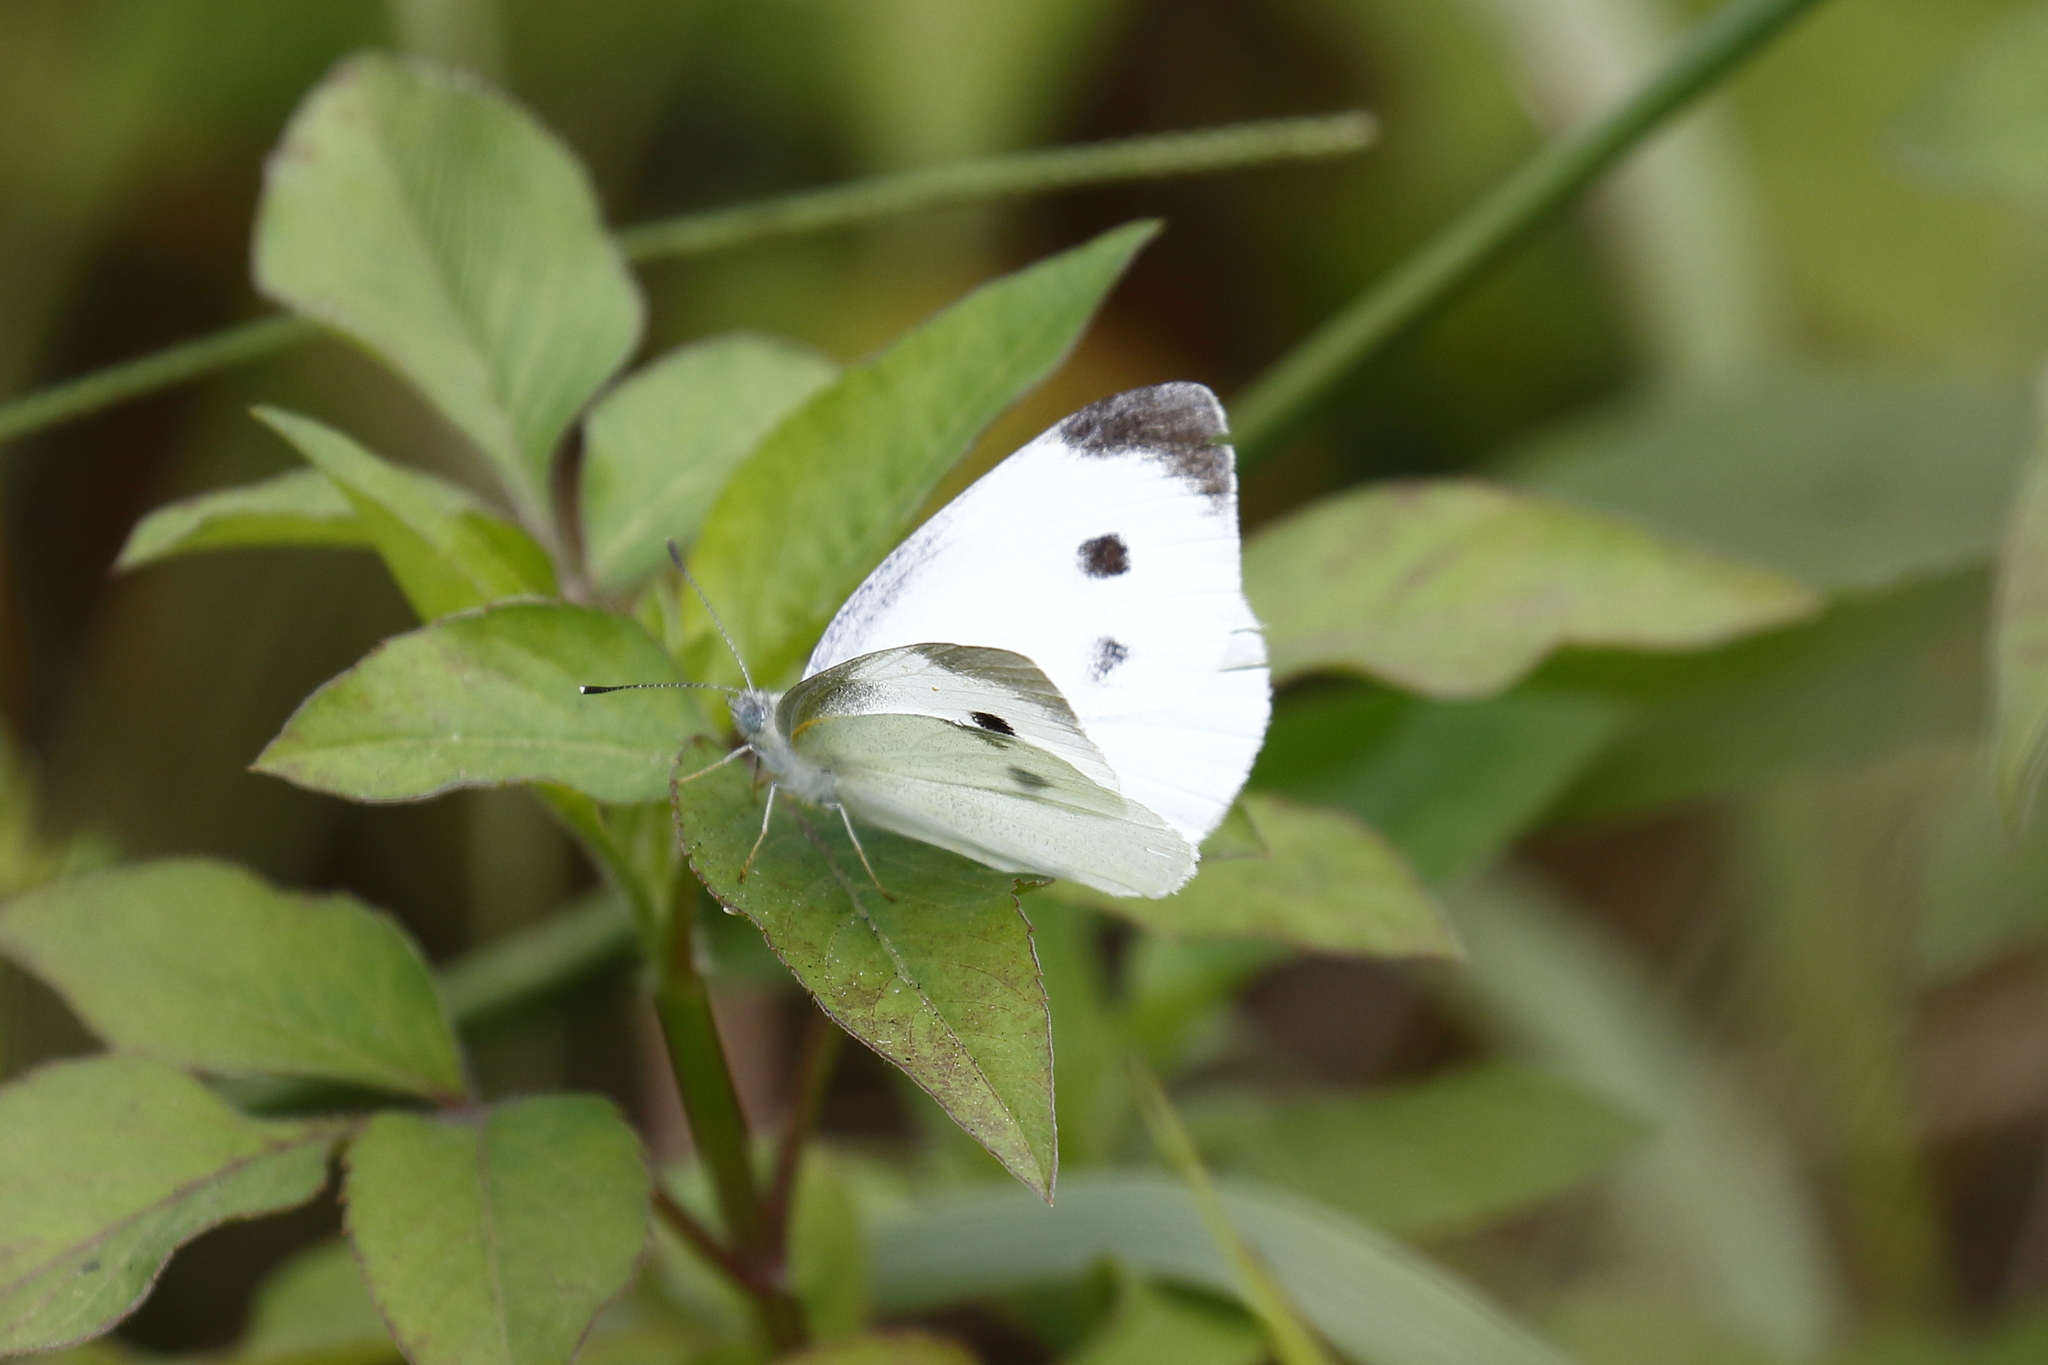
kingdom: Animalia
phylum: Arthropoda
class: Insecta
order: Lepidoptera
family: Pieridae
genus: Pieris
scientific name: Pieris rapae
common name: Small white
